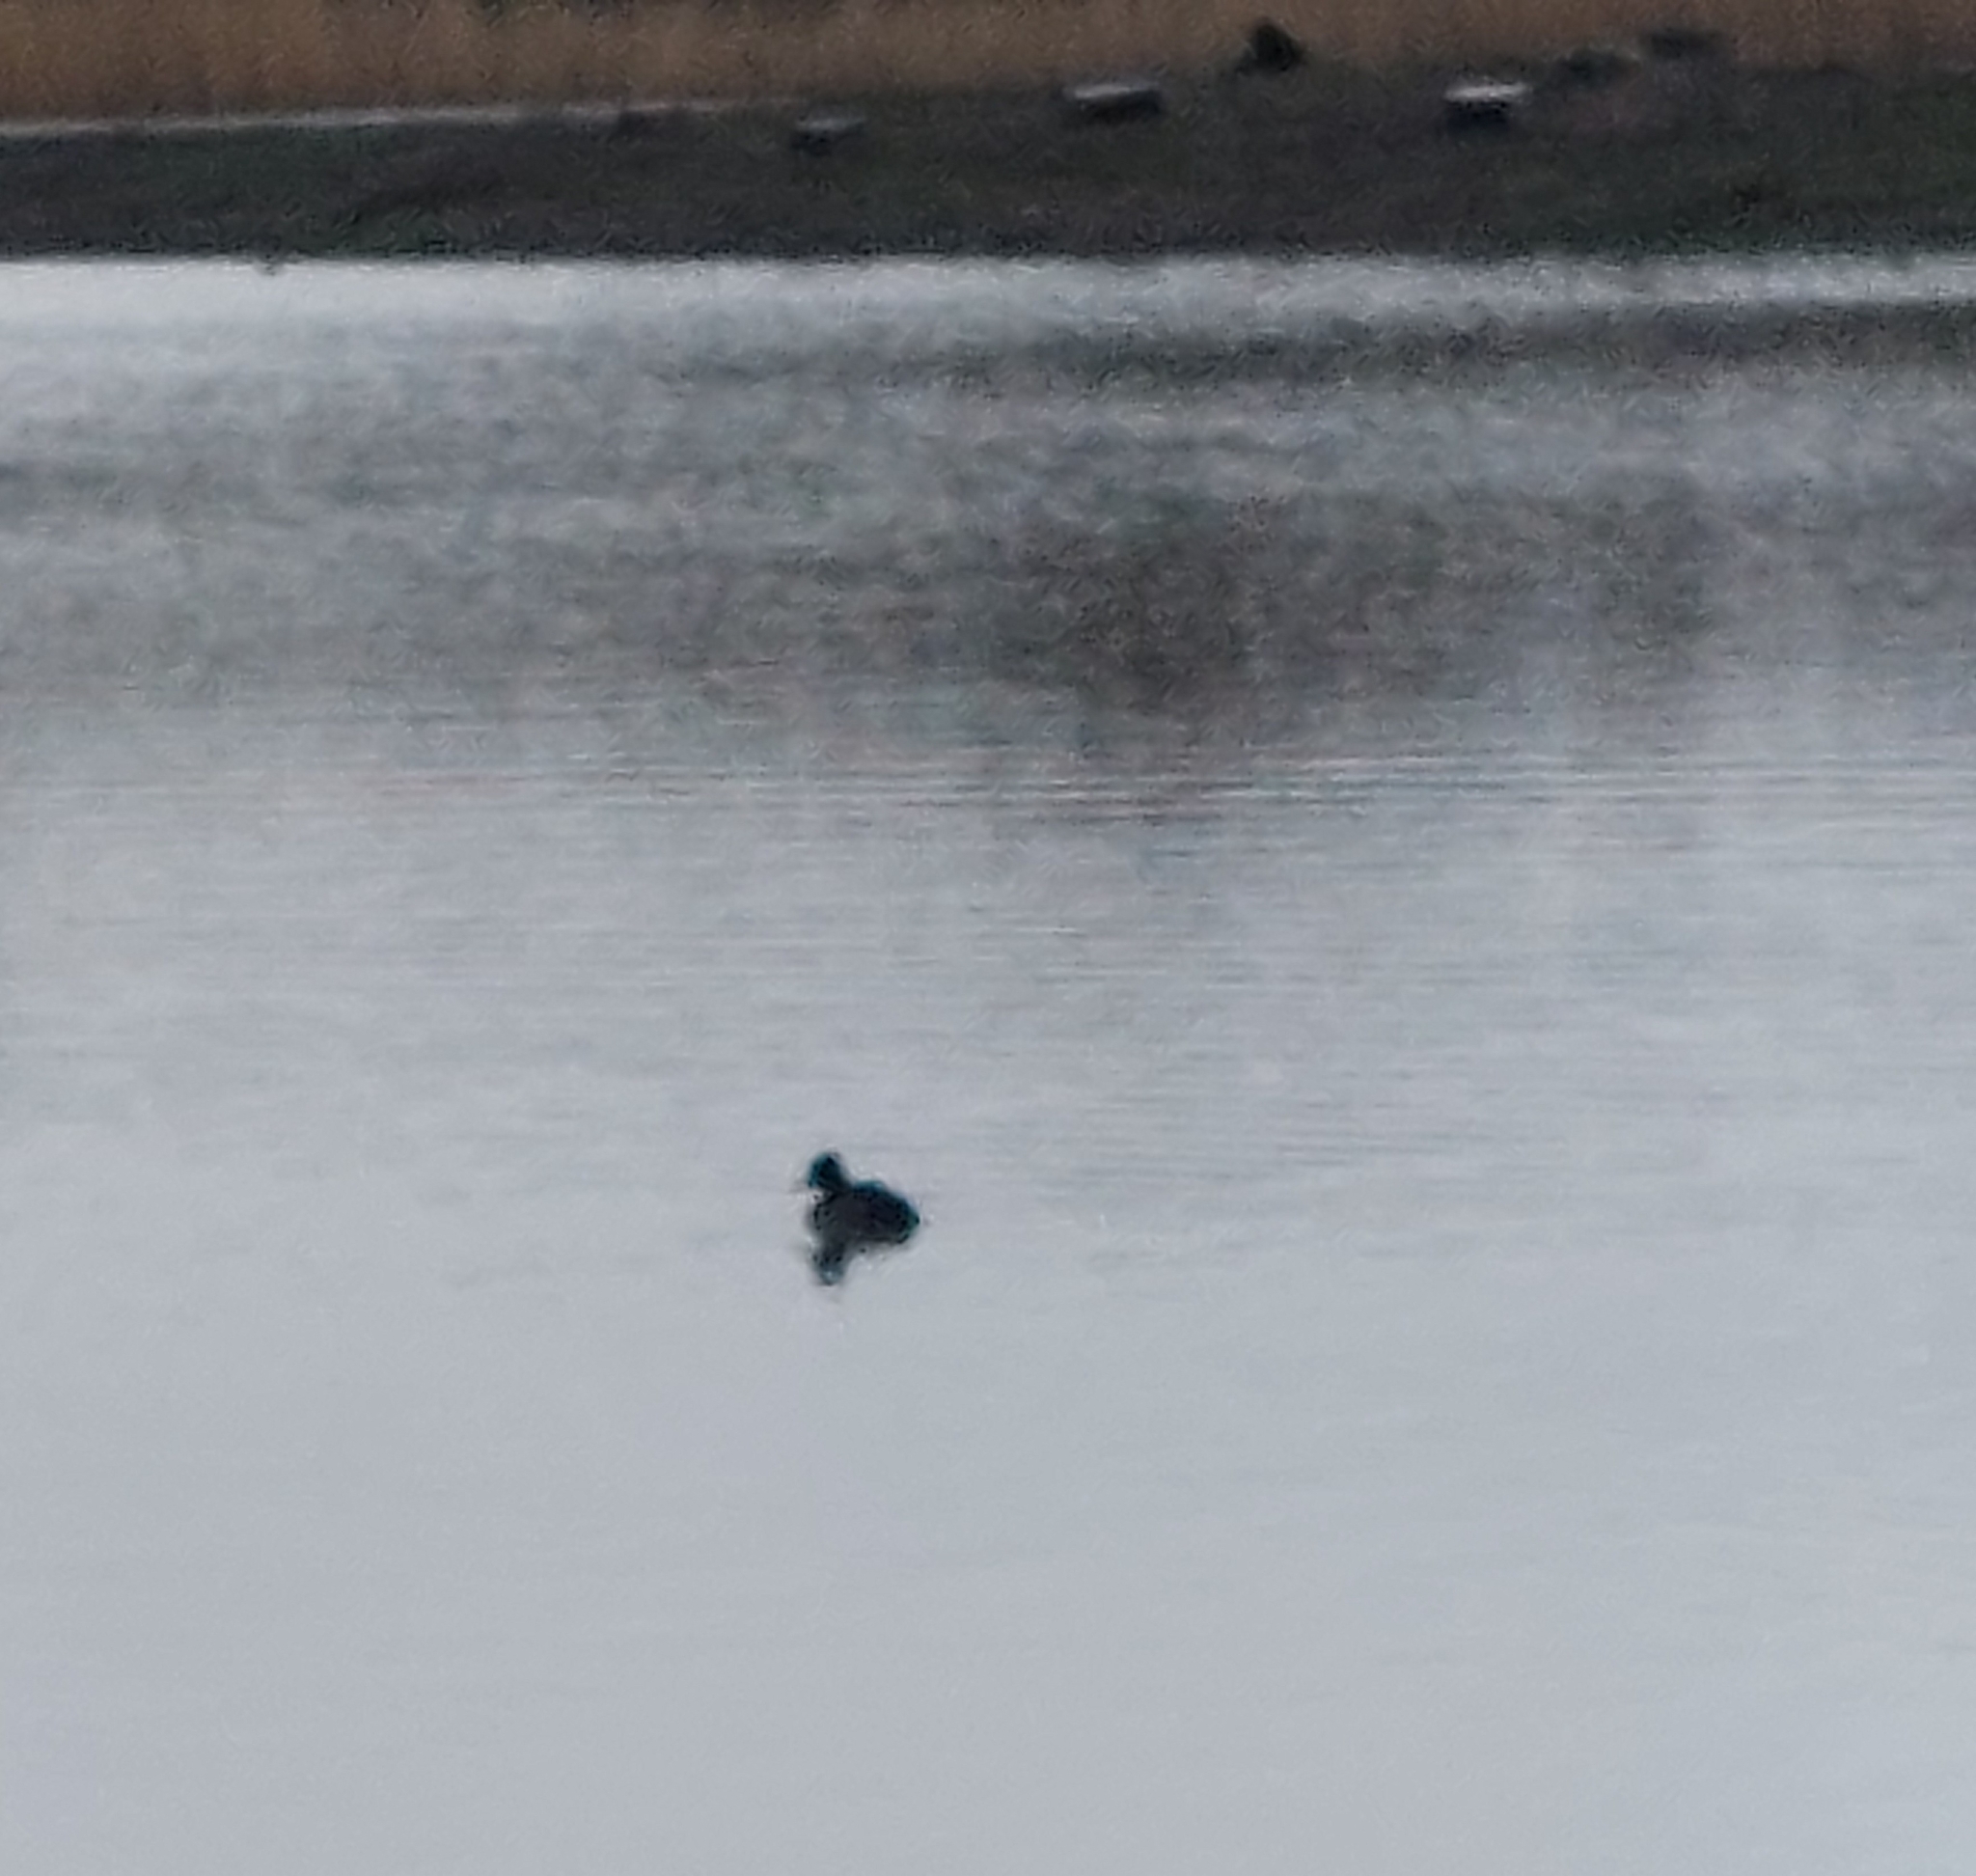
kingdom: Animalia
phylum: Chordata
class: Aves
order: Anseriformes
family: Anatidae
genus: Aythya
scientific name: Aythya fuligula
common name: Tufted duck
